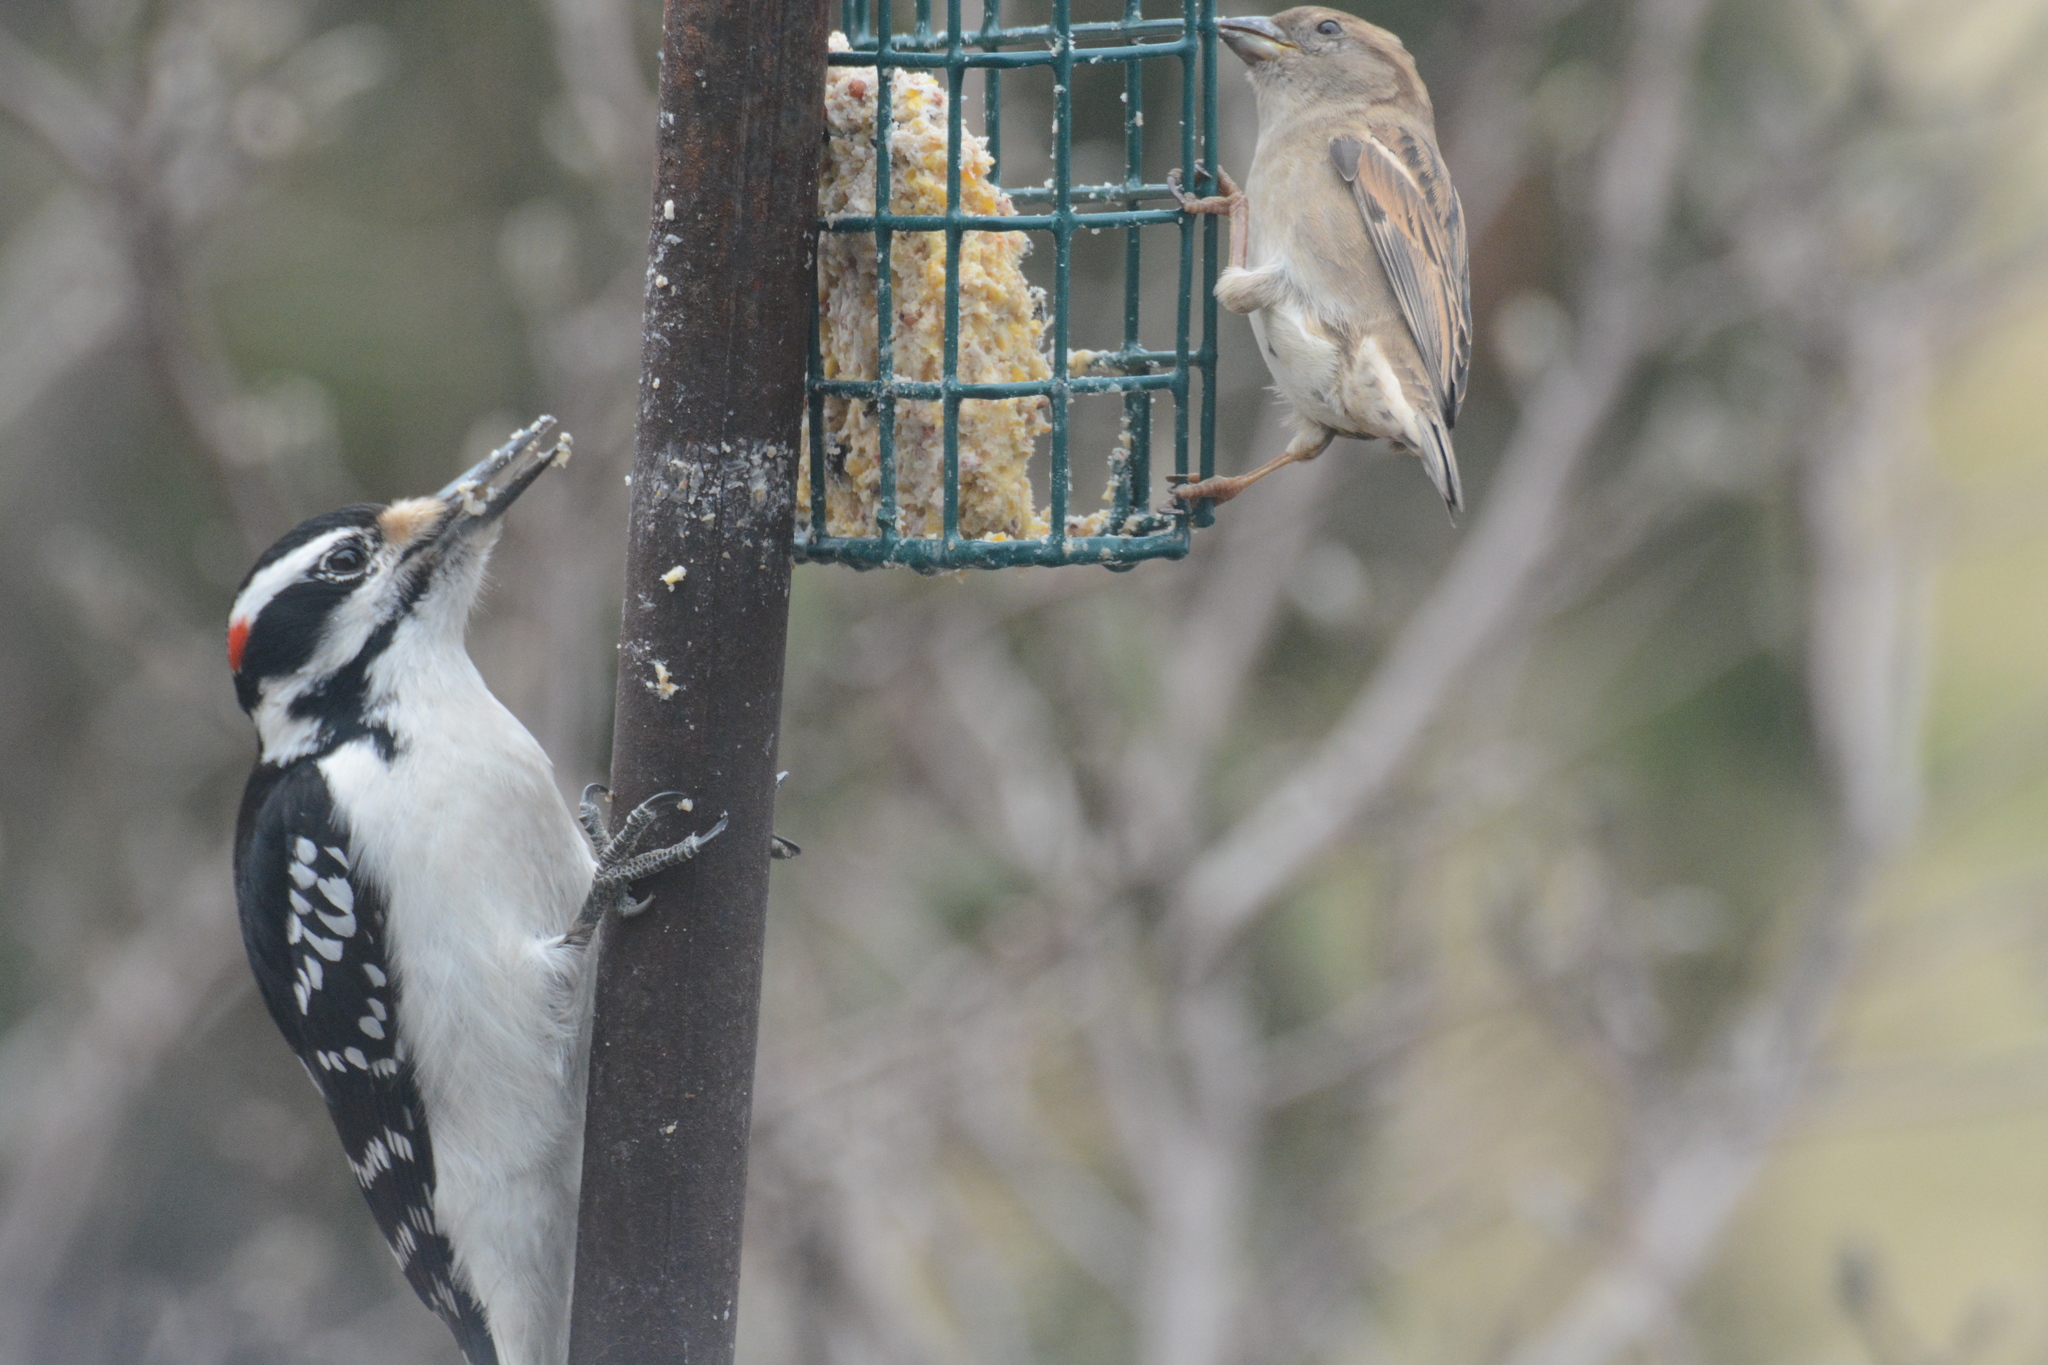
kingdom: Animalia
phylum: Chordata
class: Aves
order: Piciformes
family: Picidae
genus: Leuconotopicus
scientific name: Leuconotopicus villosus
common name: Hairy woodpecker
